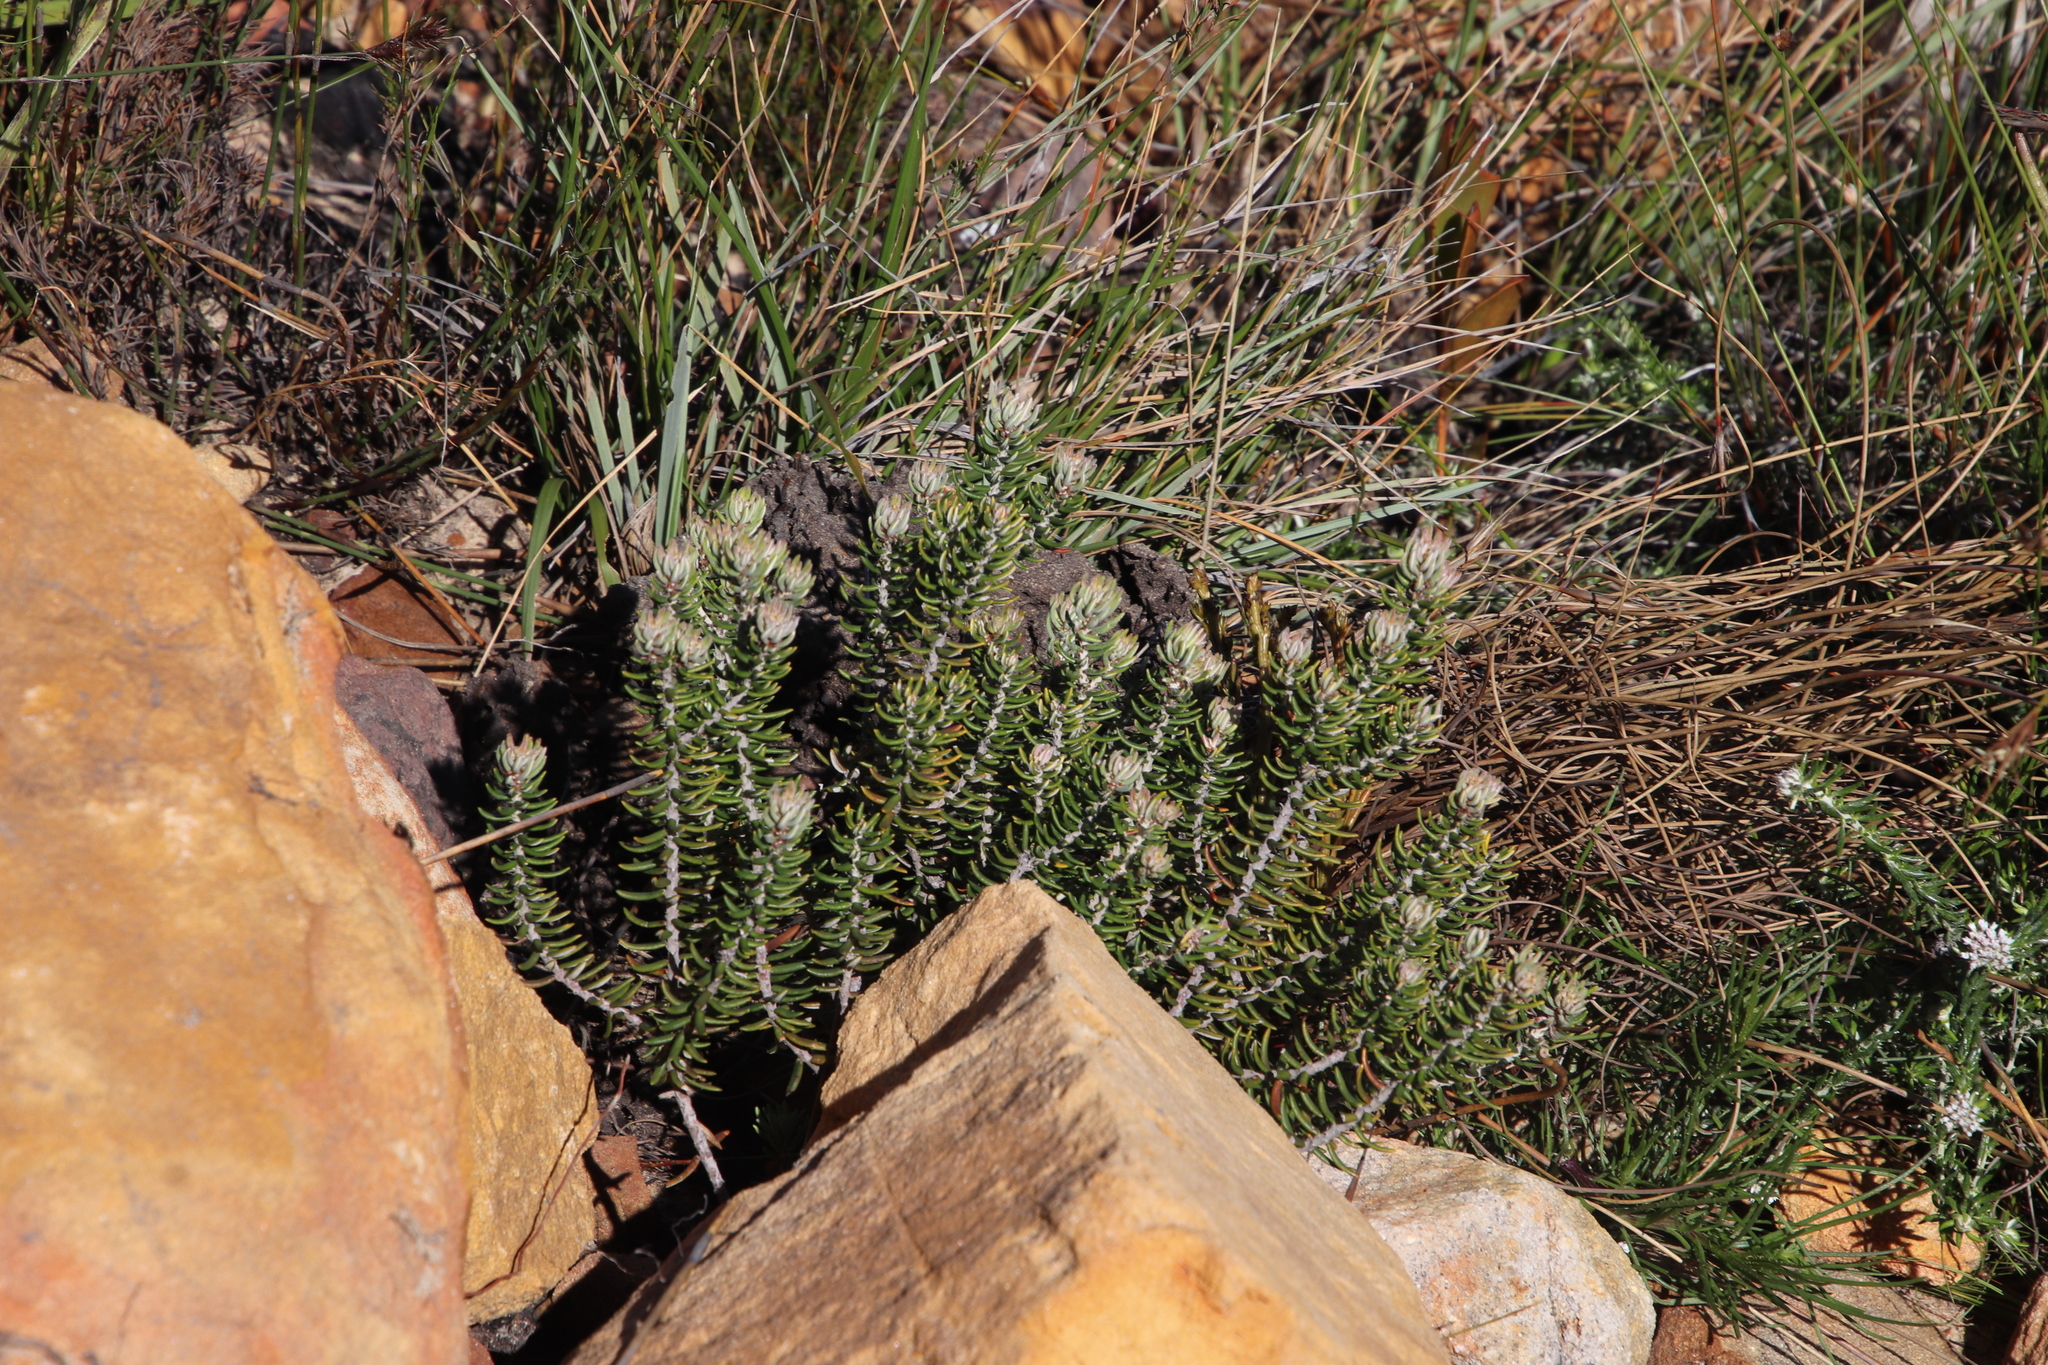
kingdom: Plantae
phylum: Tracheophyta
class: Magnoliopsida
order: Rosales
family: Rhamnaceae
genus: Trichocephalus
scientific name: Trichocephalus stipularis
